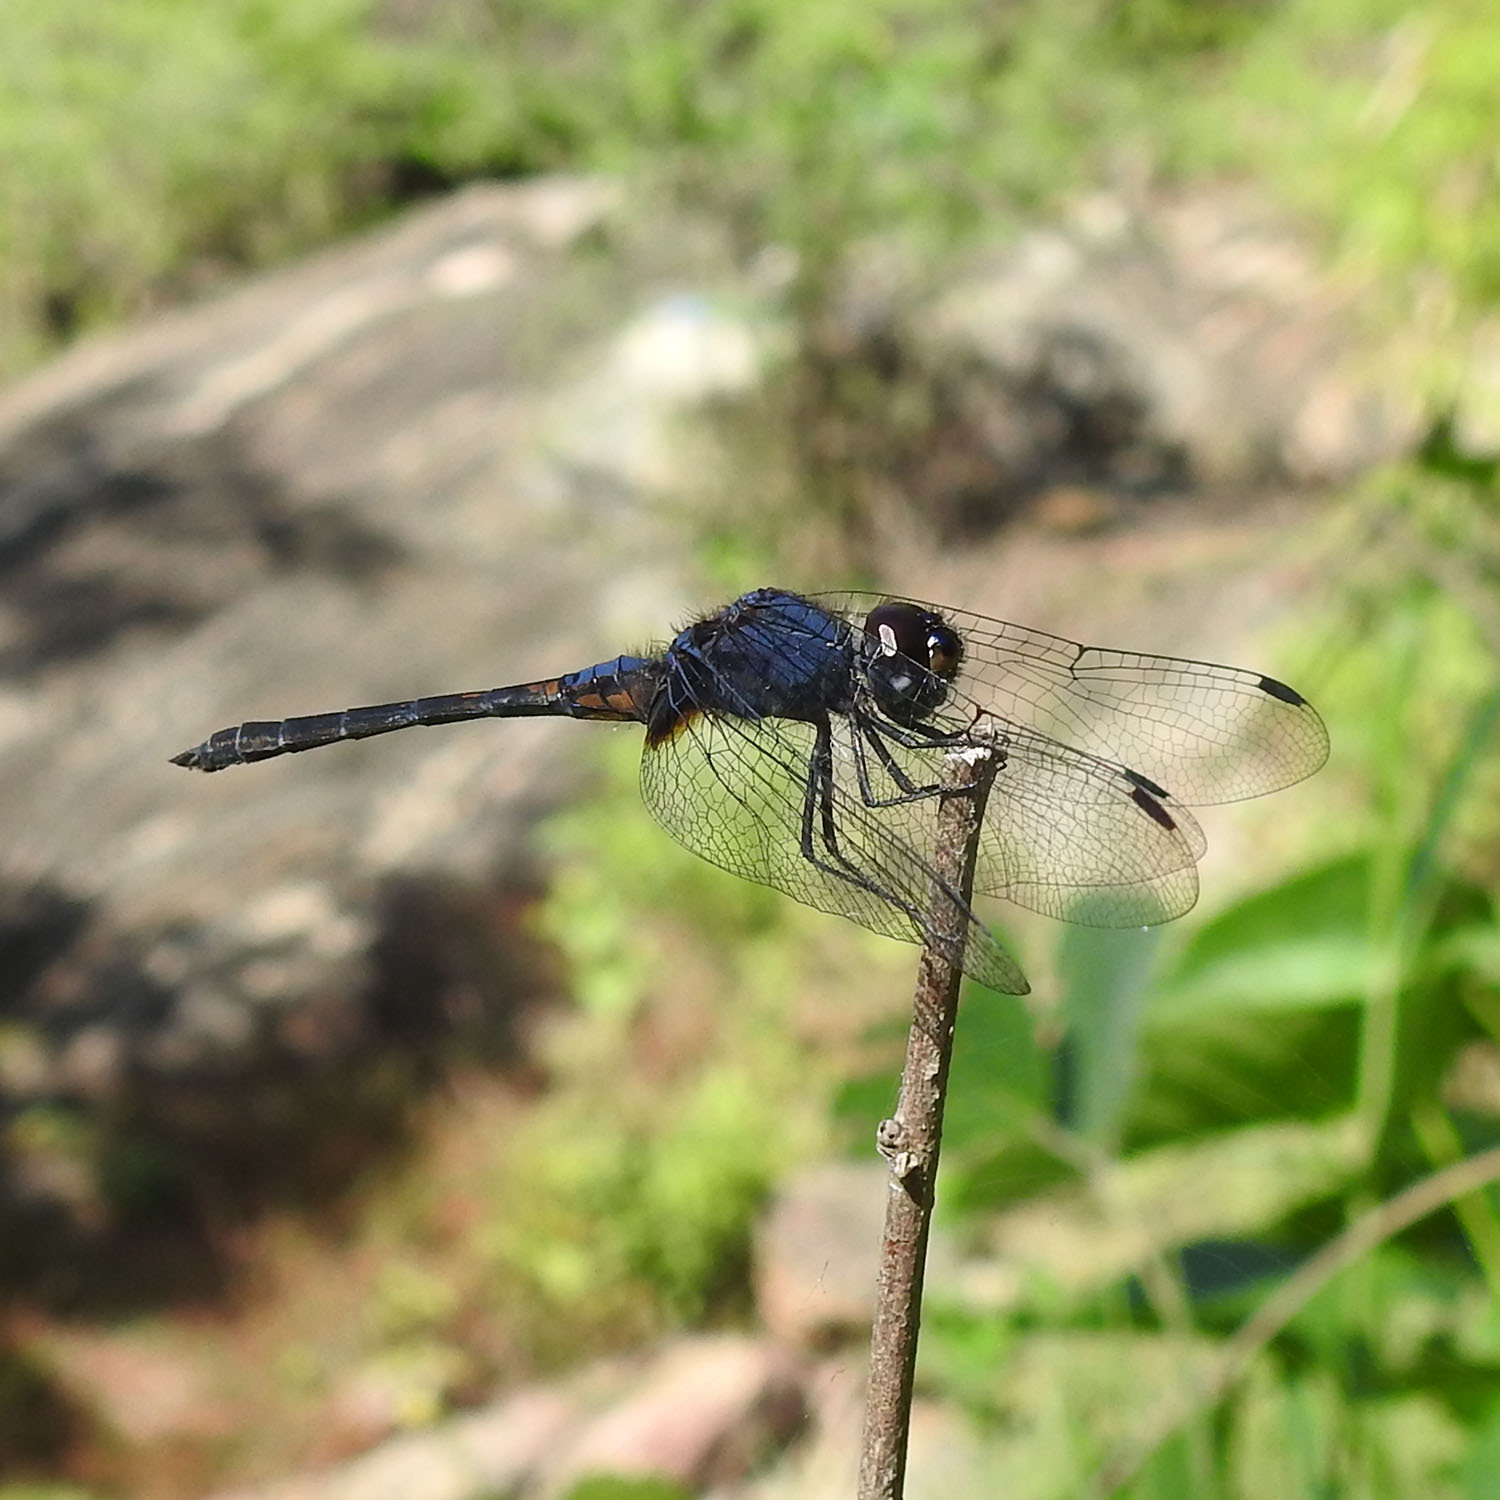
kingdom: Animalia
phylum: Arthropoda
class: Insecta
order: Odonata
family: Libellulidae
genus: Trithemis
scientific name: Trithemis festiva
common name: Indigo dropwing
